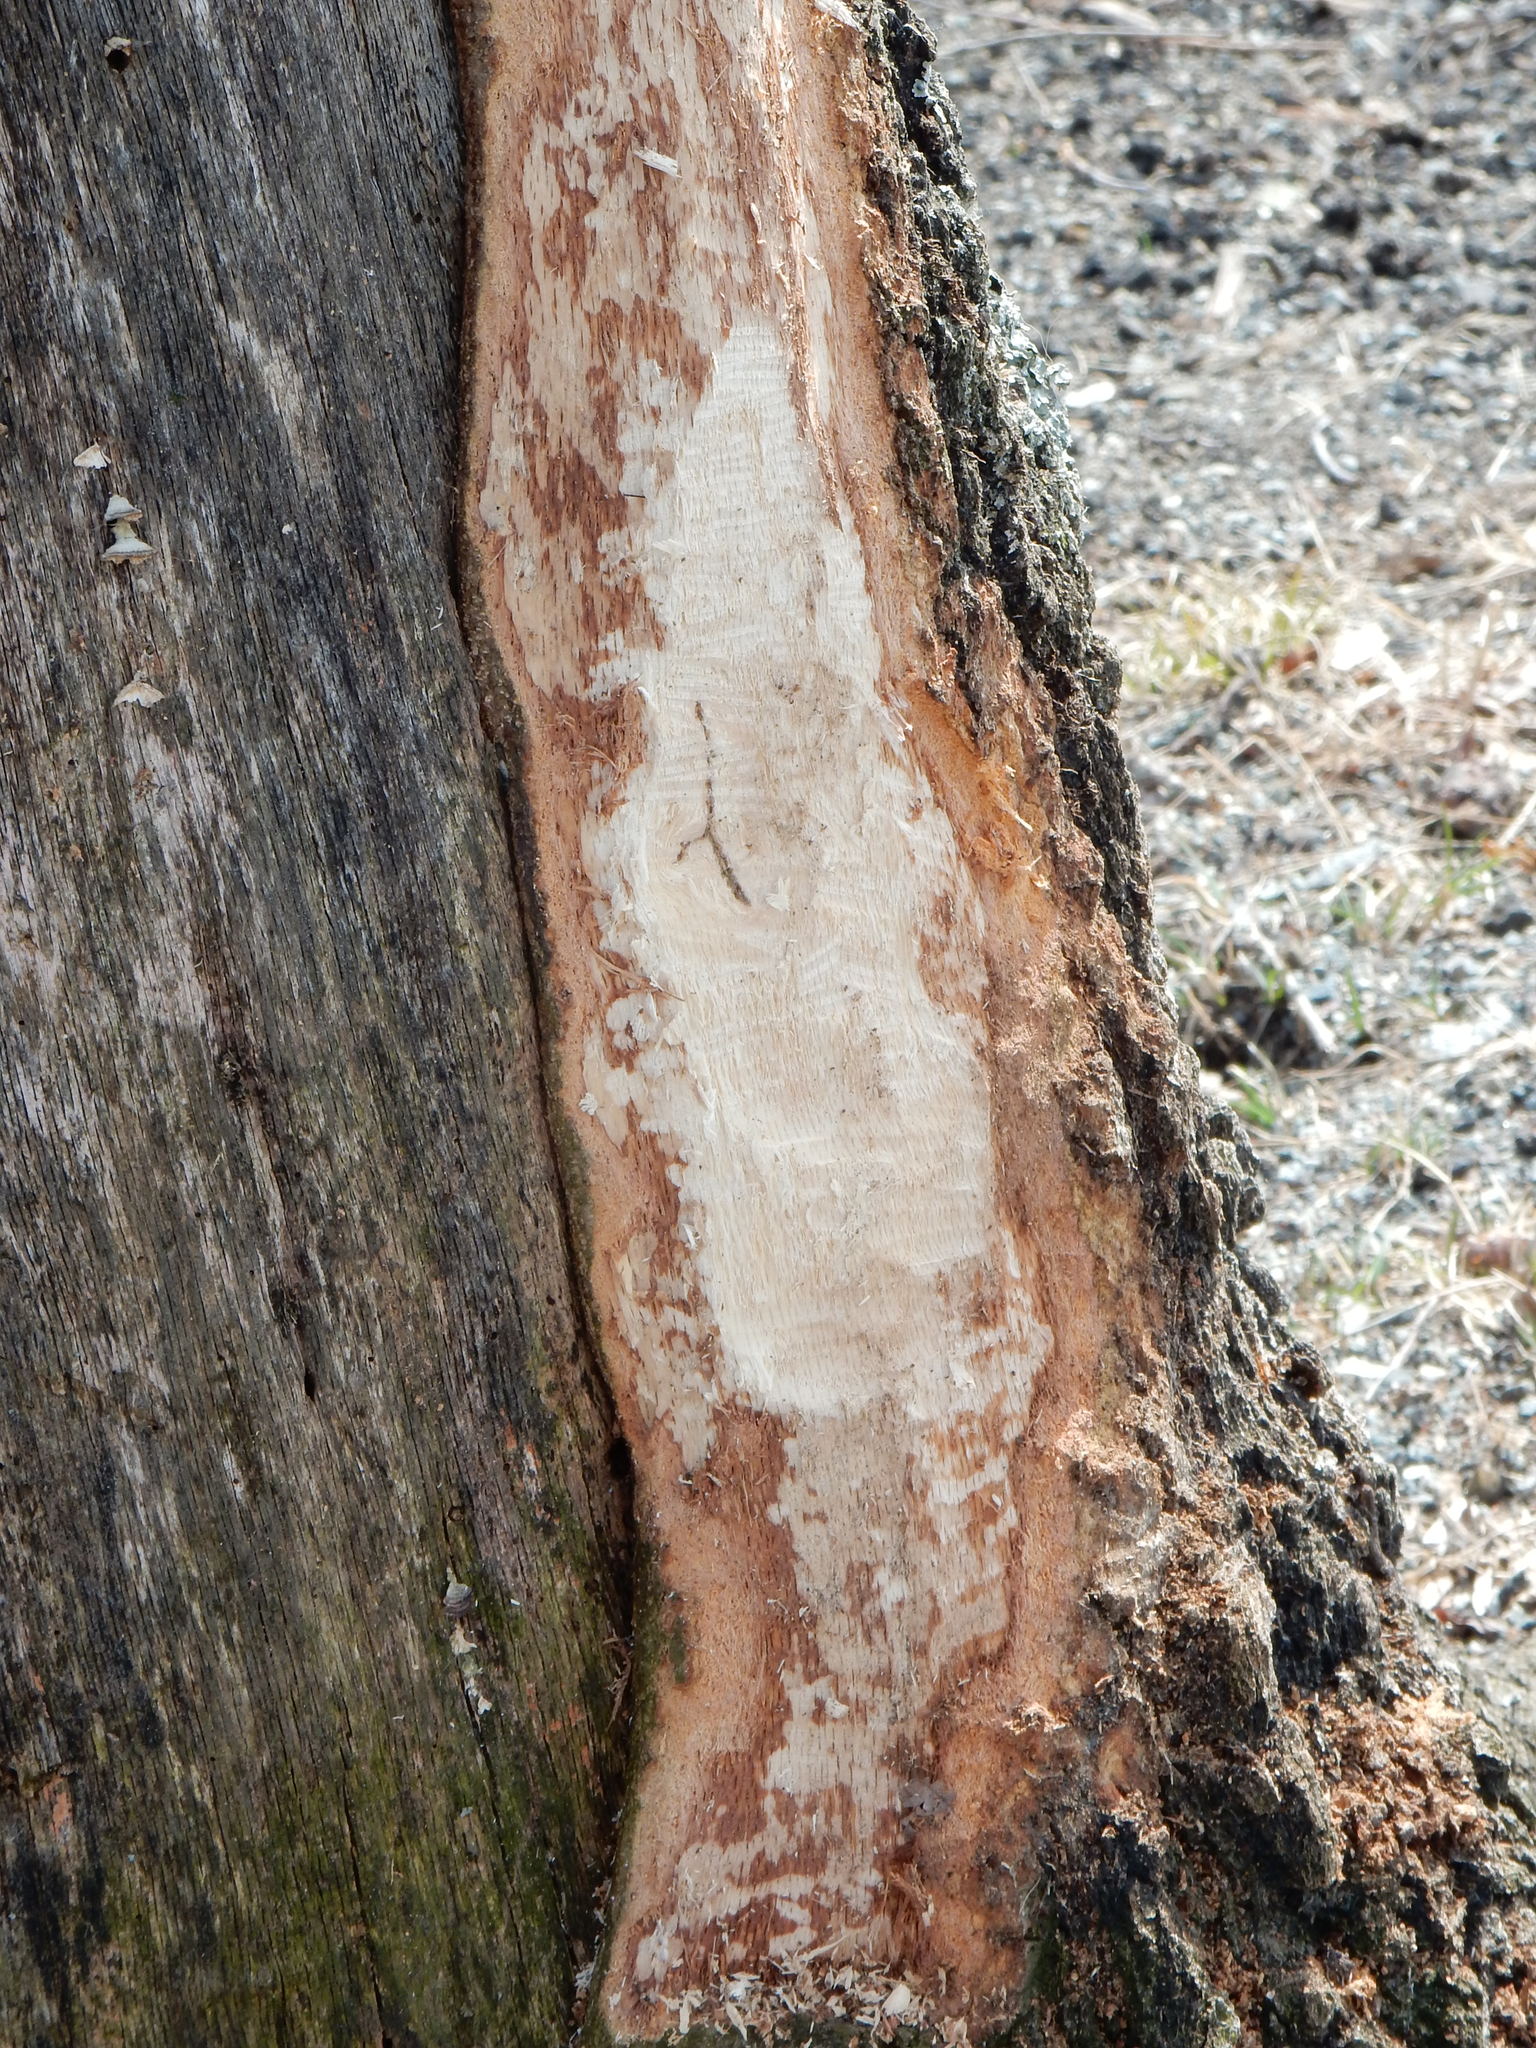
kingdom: Animalia
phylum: Chordata
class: Mammalia
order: Rodentia
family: Castoridae
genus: Castor
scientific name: Castor canadensis
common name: American beaver
